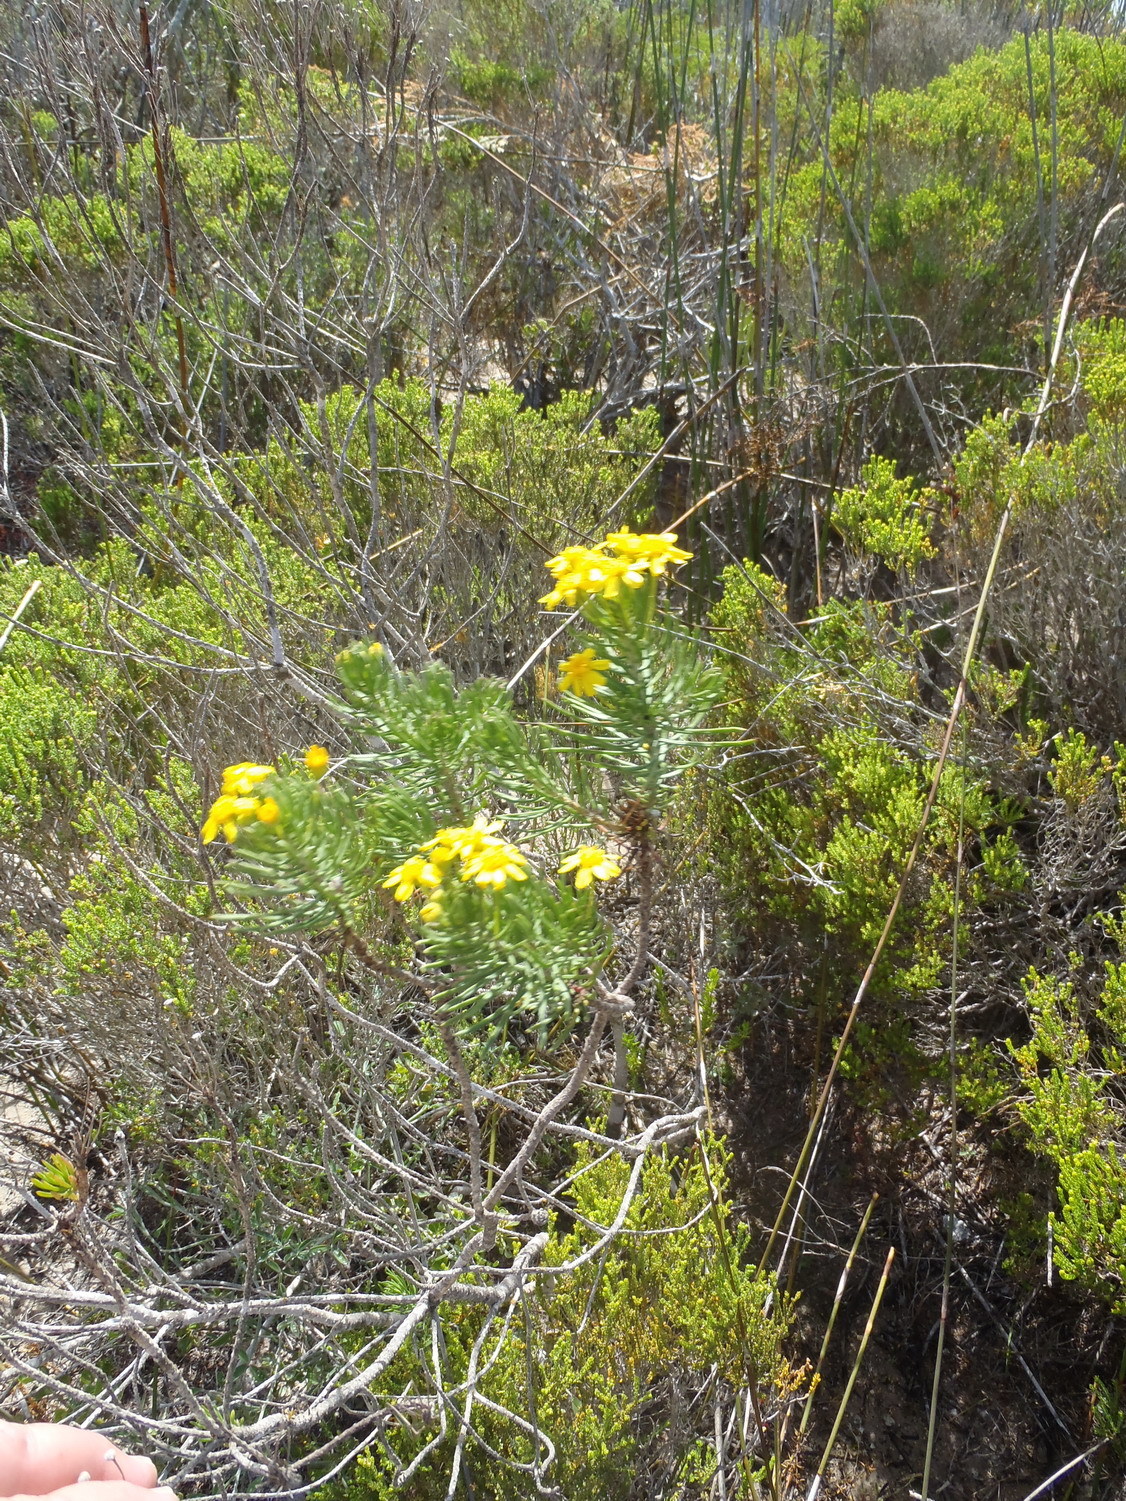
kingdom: Plantae
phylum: Tracheophyta
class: Magnoliopsida
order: Asterales
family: Asteraceae
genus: Euryops
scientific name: Euryops linifolius
